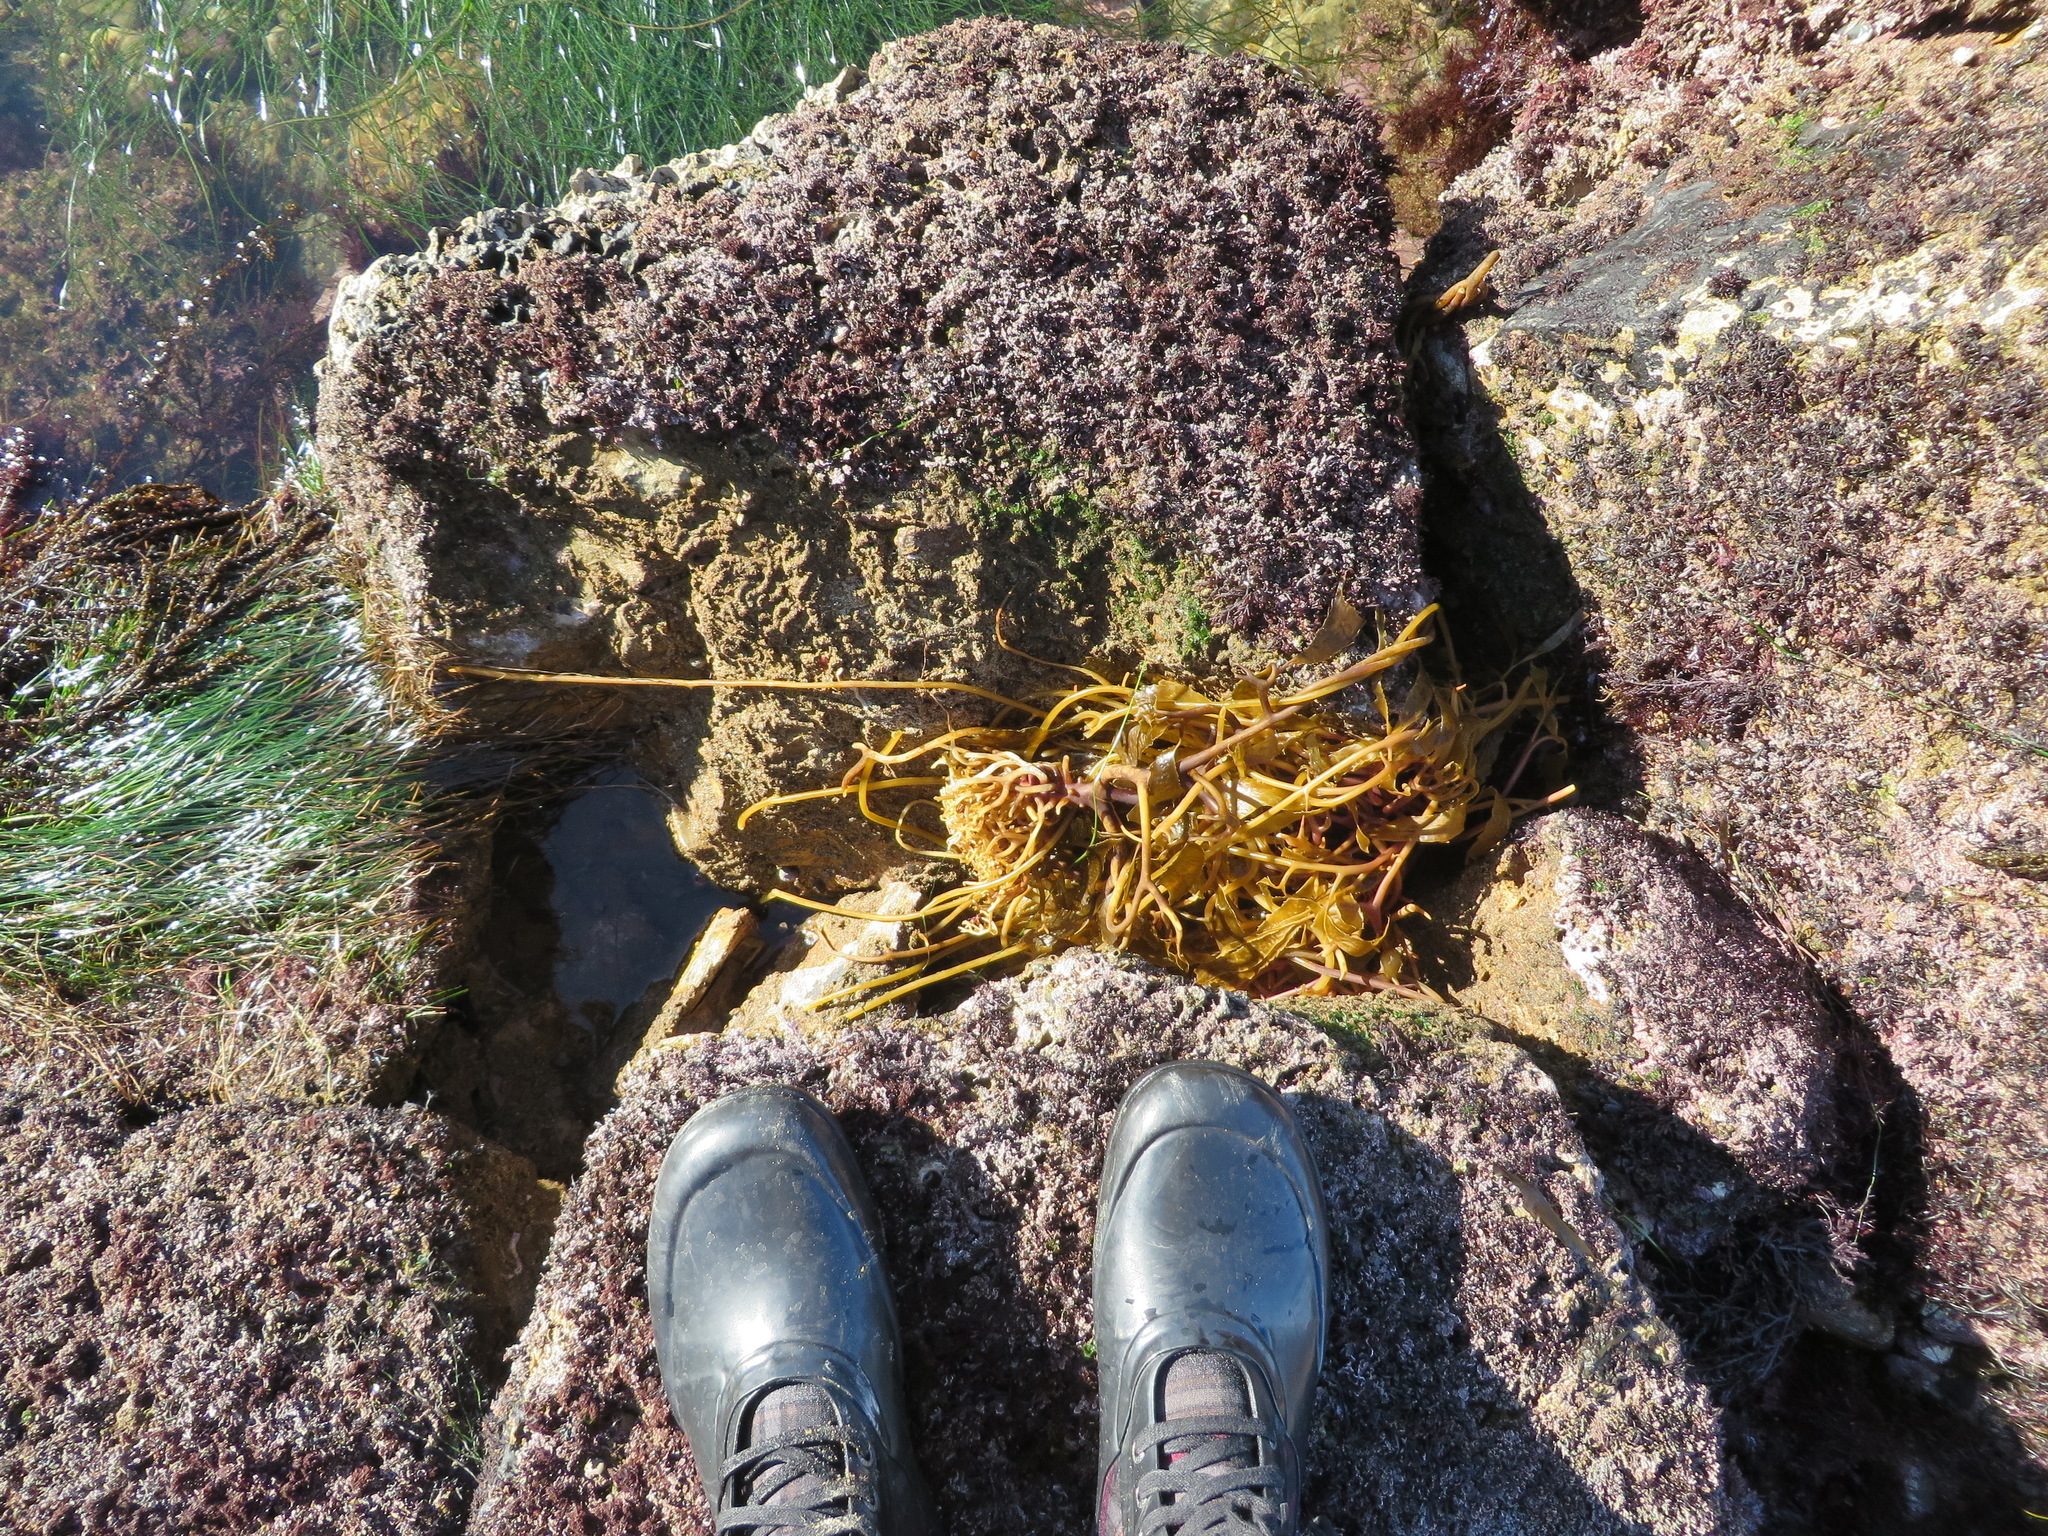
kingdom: Chromista
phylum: Ochrophyta
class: Phaeophyceae
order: Laminariales
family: Laminariaceae
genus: Macrocystis
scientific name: Macrocystis pyrifera
